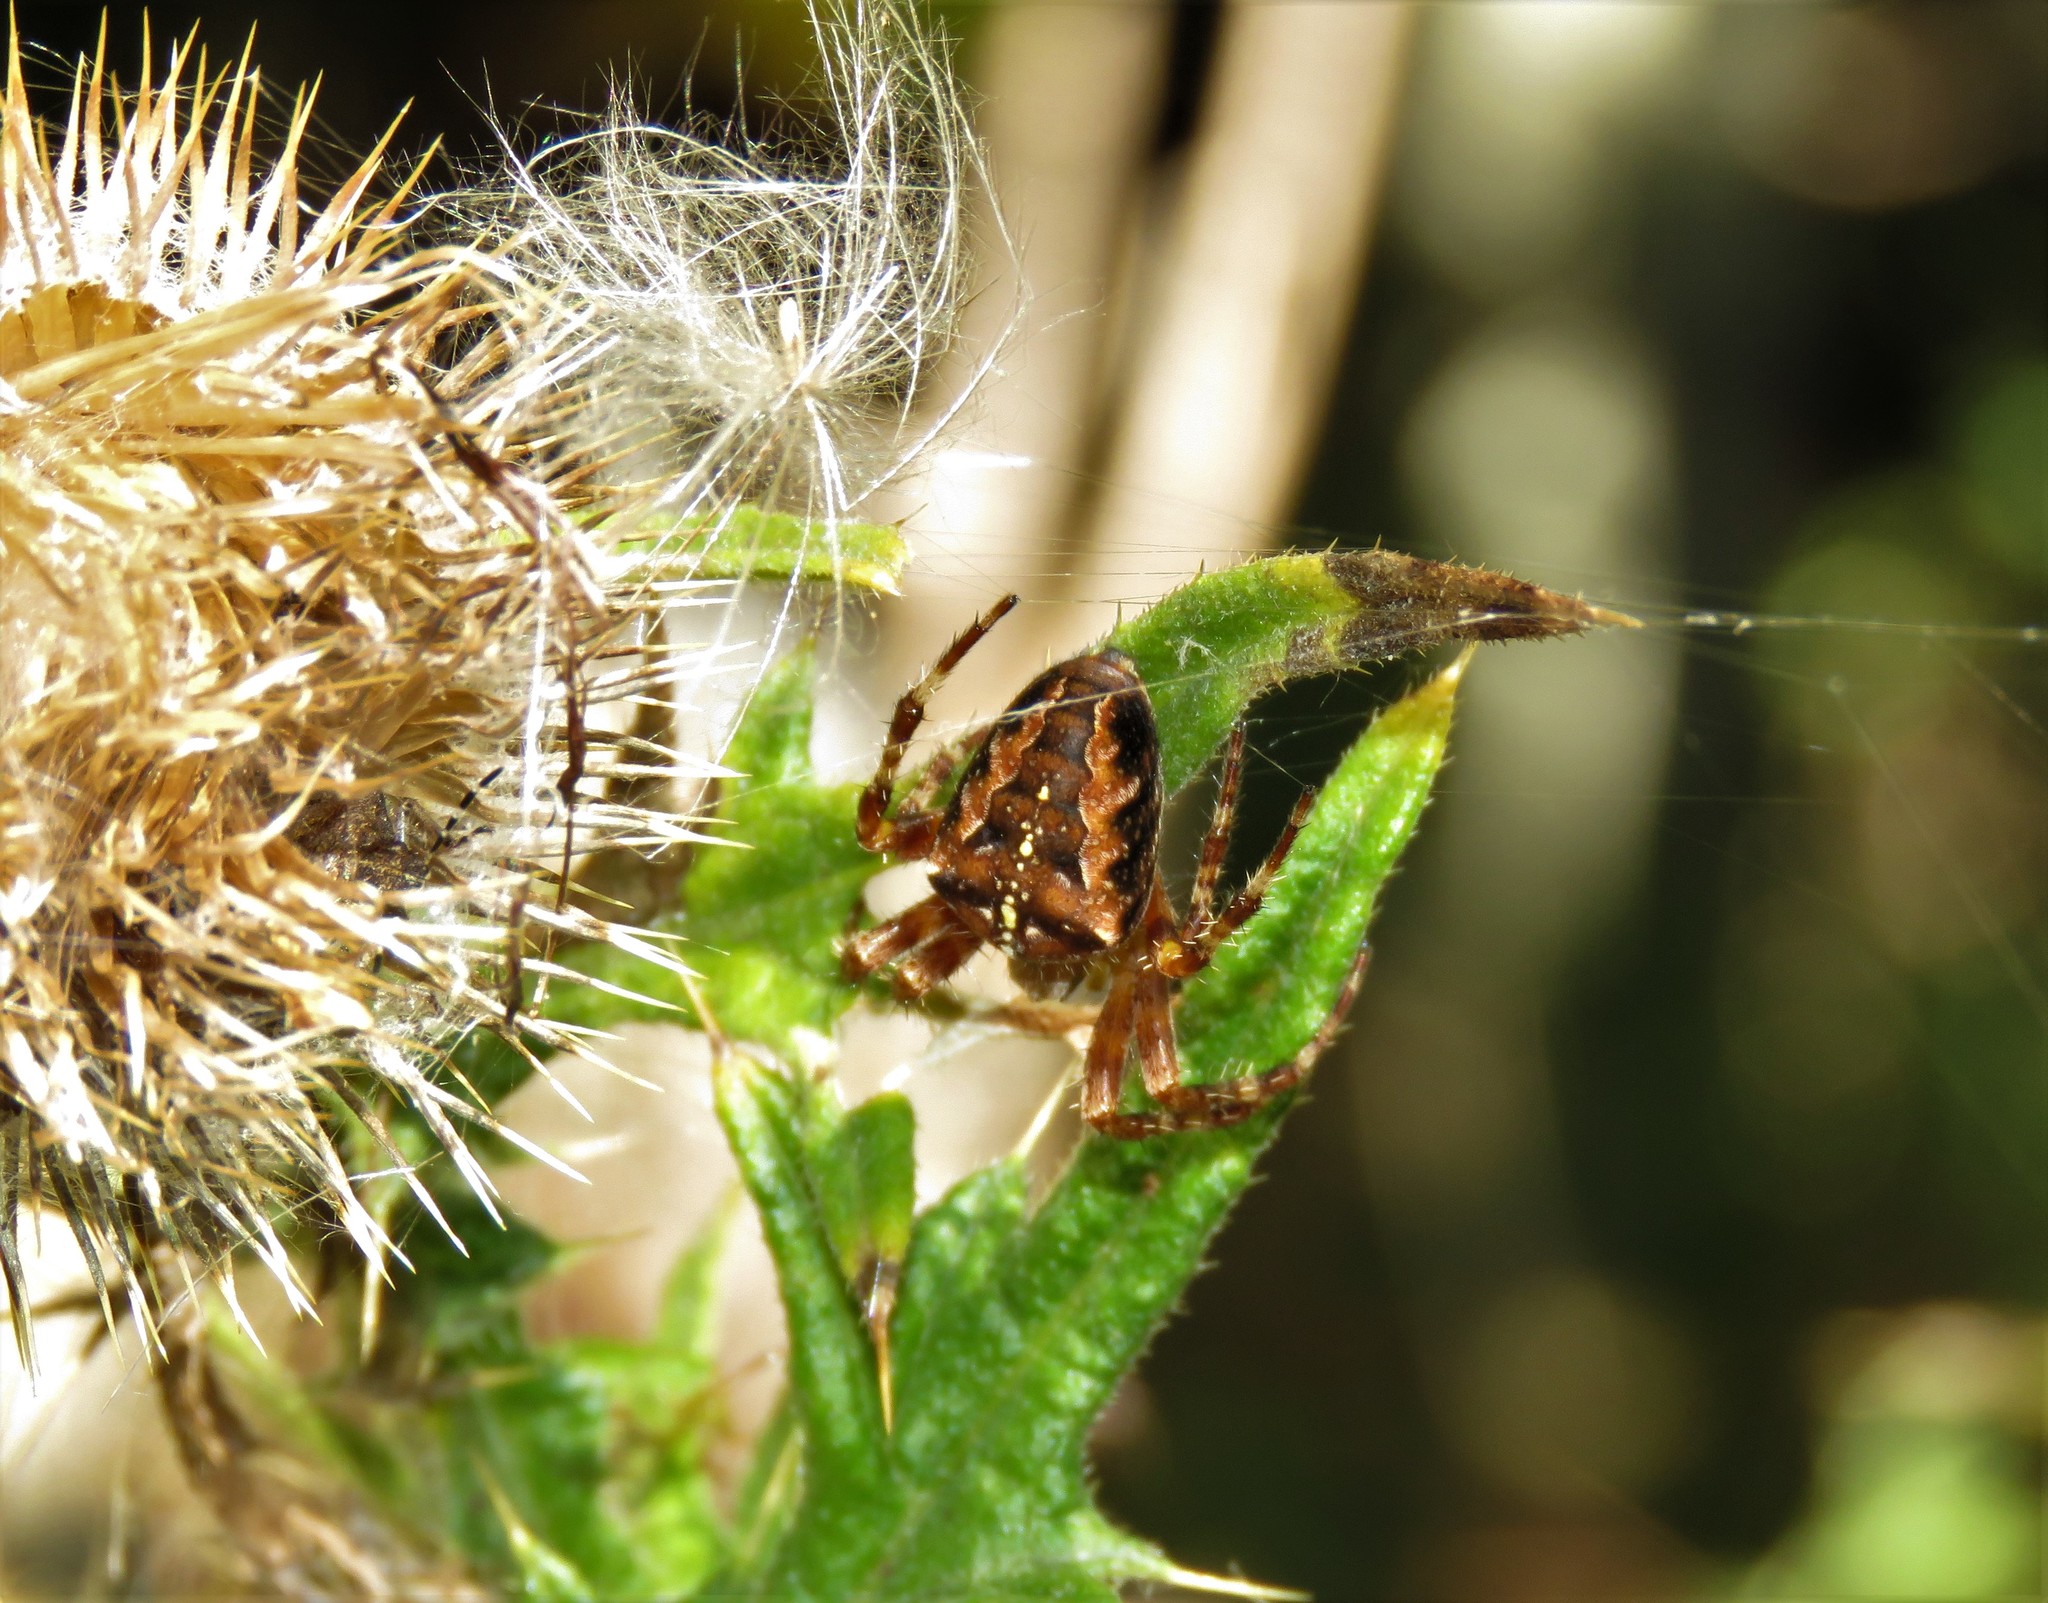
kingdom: Animalia
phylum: Arthropoda
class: Arachnida
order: Araneae
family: Araneidae
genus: Araneus
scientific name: Araneus diadematus
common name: Cross orbweaver
